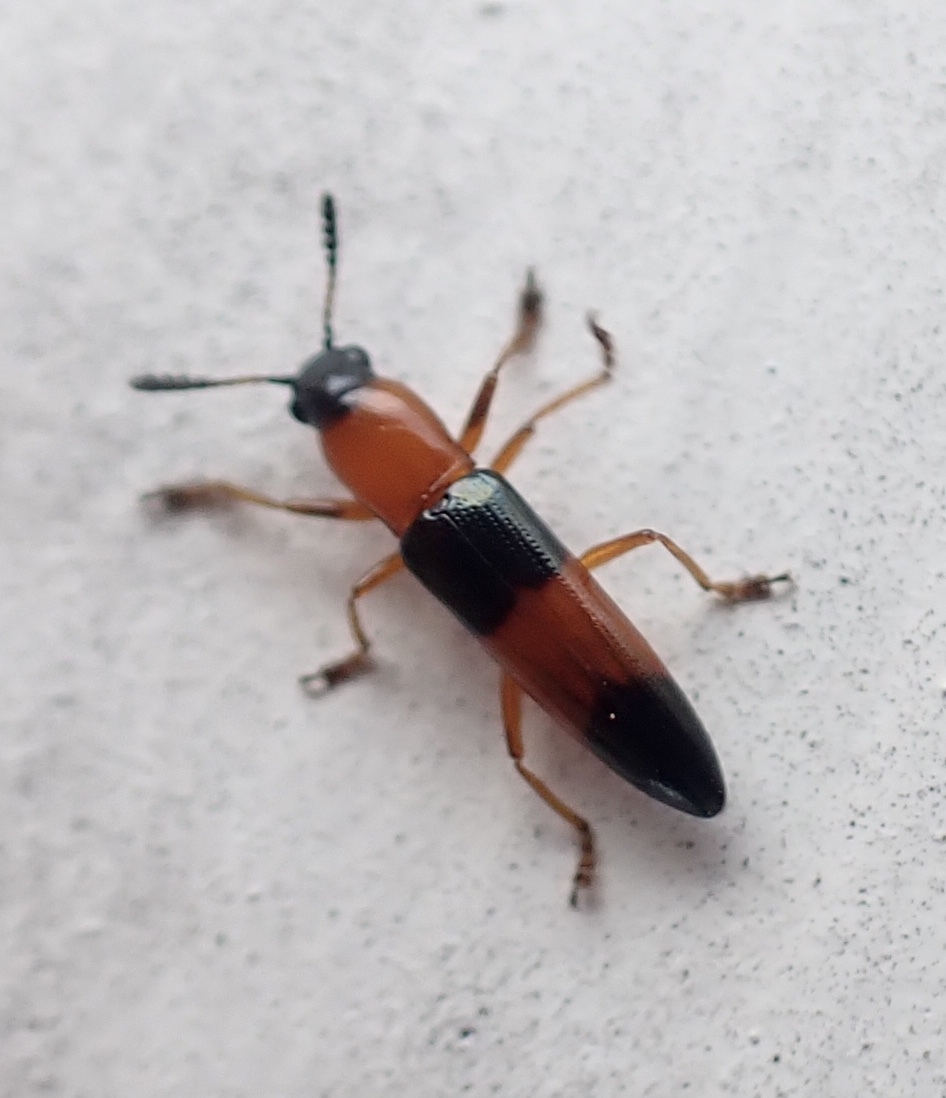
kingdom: Animalia
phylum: Arthropoda
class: Insecta
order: Coleoptera
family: Erotylidae
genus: Languria
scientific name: Languria trifasciata
